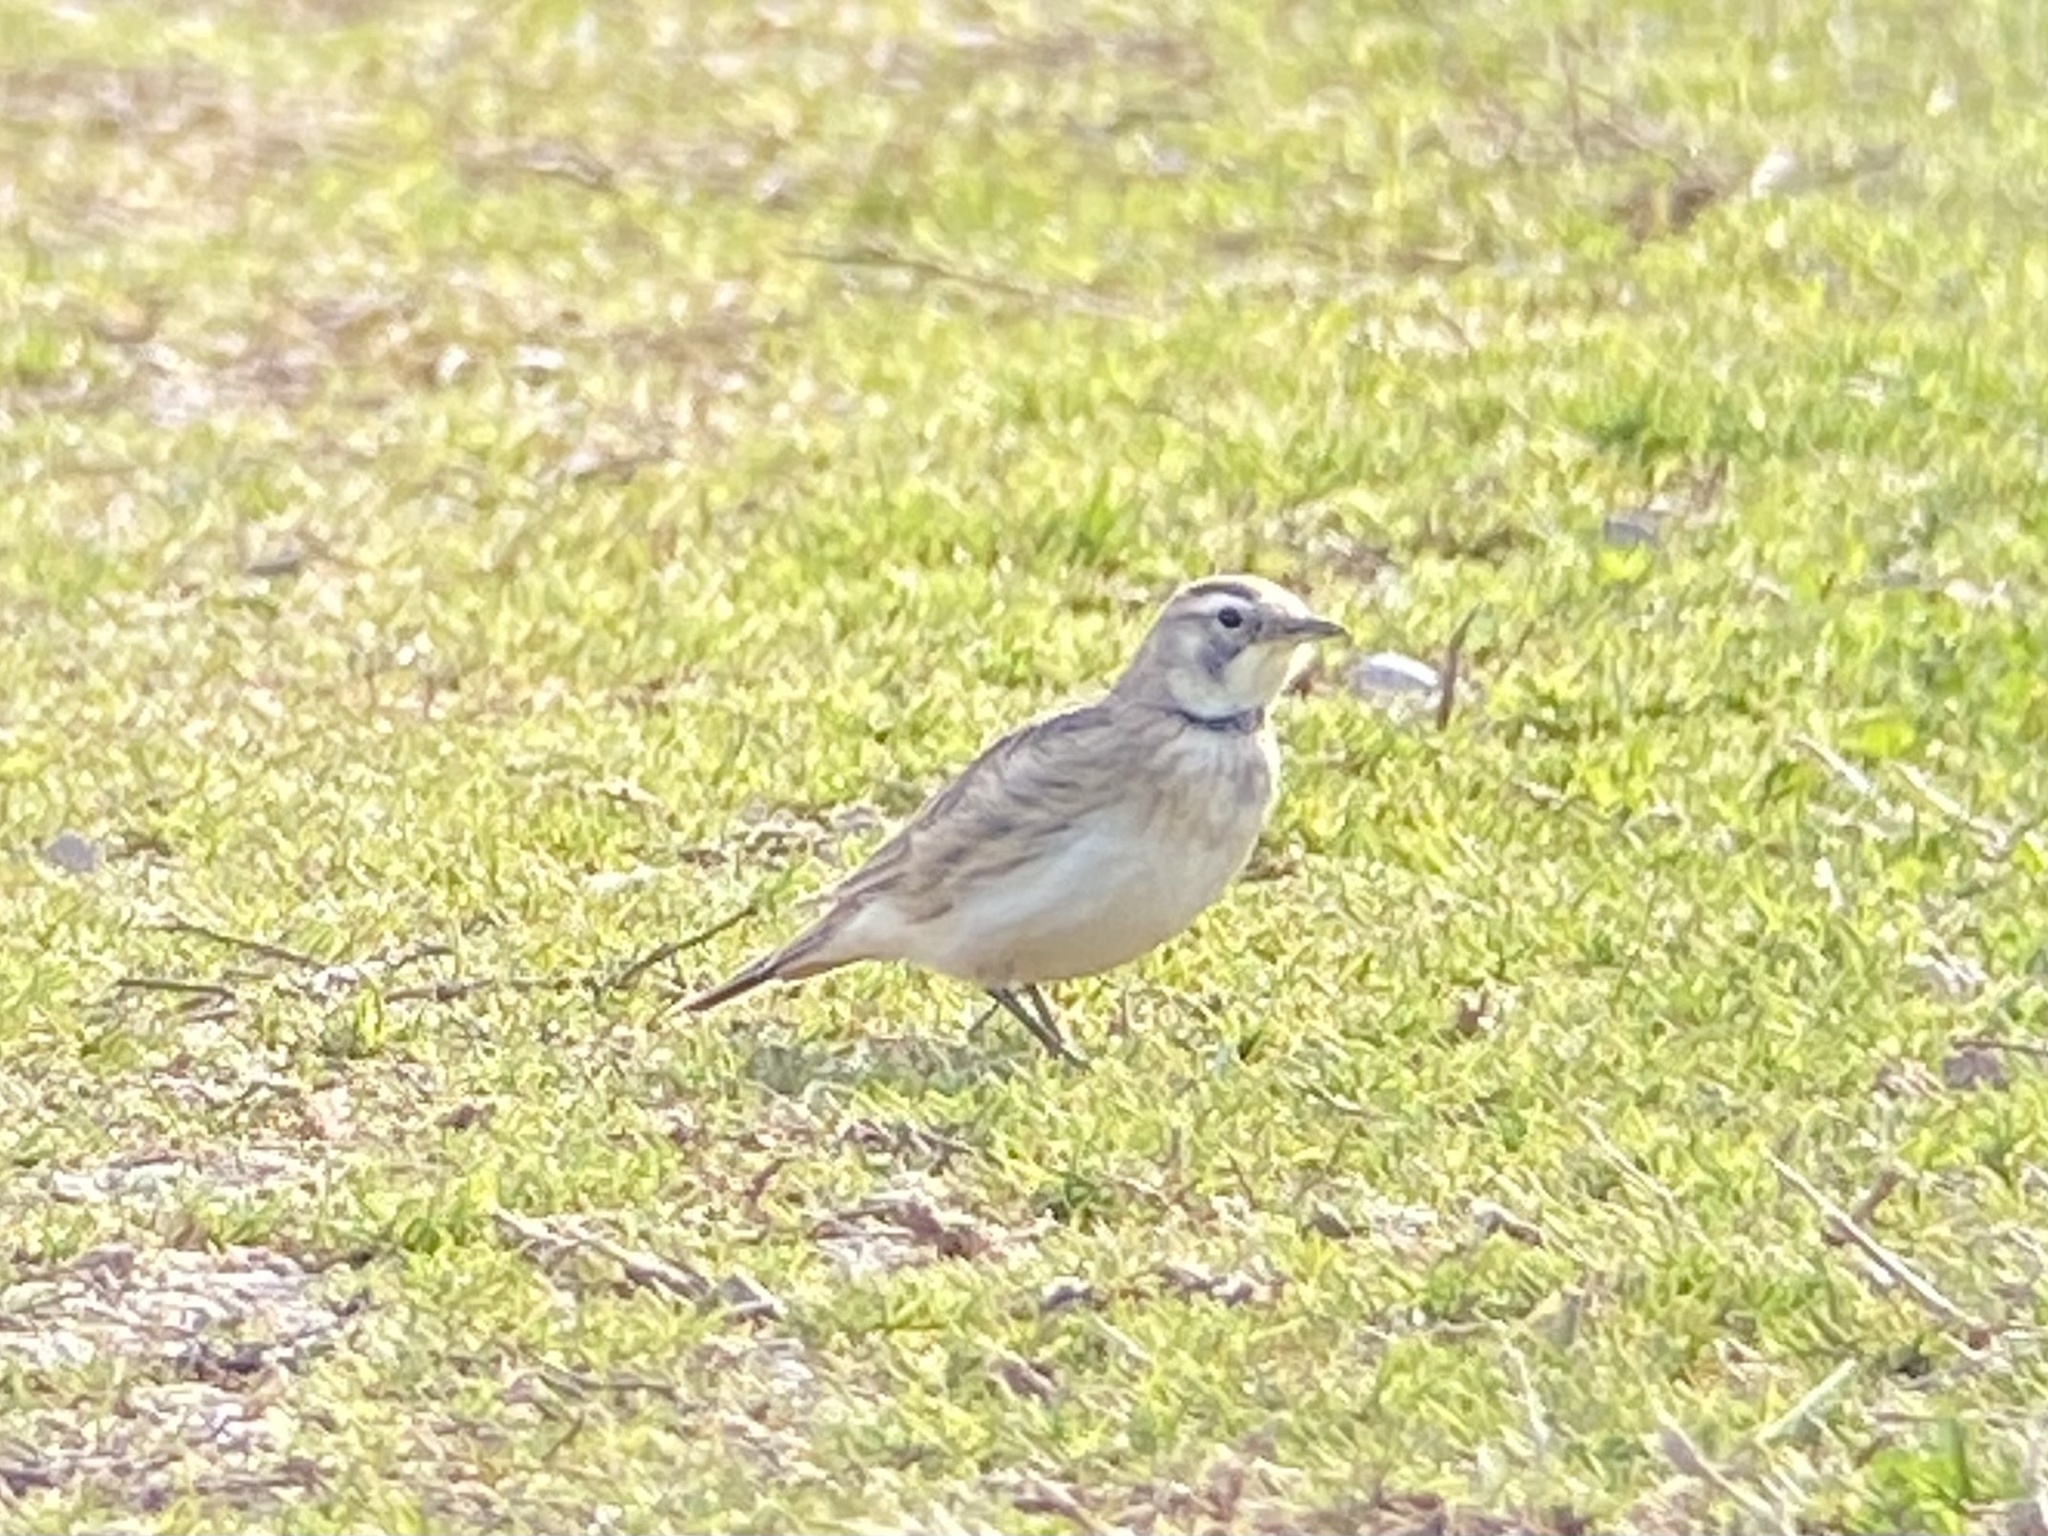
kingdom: Animalia
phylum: Chordata
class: Aves
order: Passeriformes
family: Alaudidae
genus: Eremophila
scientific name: Eremophila alpestris
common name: Horned lark
